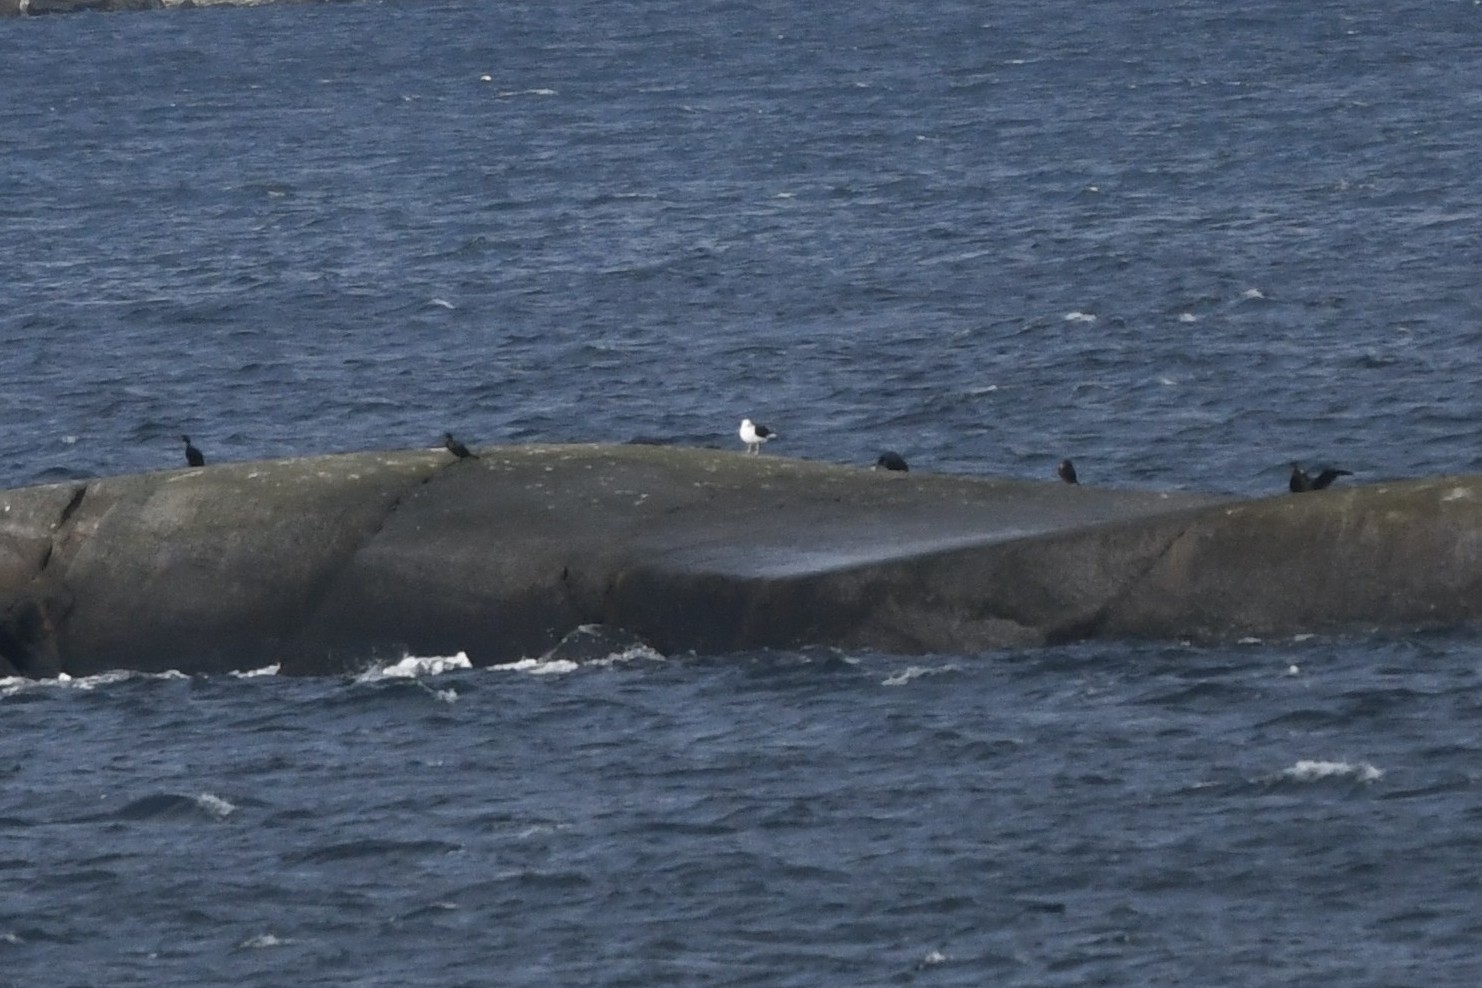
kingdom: Animalia
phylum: Chordata
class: Aves
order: Charadriiformes
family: Laridae
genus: Larus
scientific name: Larus marinus
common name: Great black-backed gull
